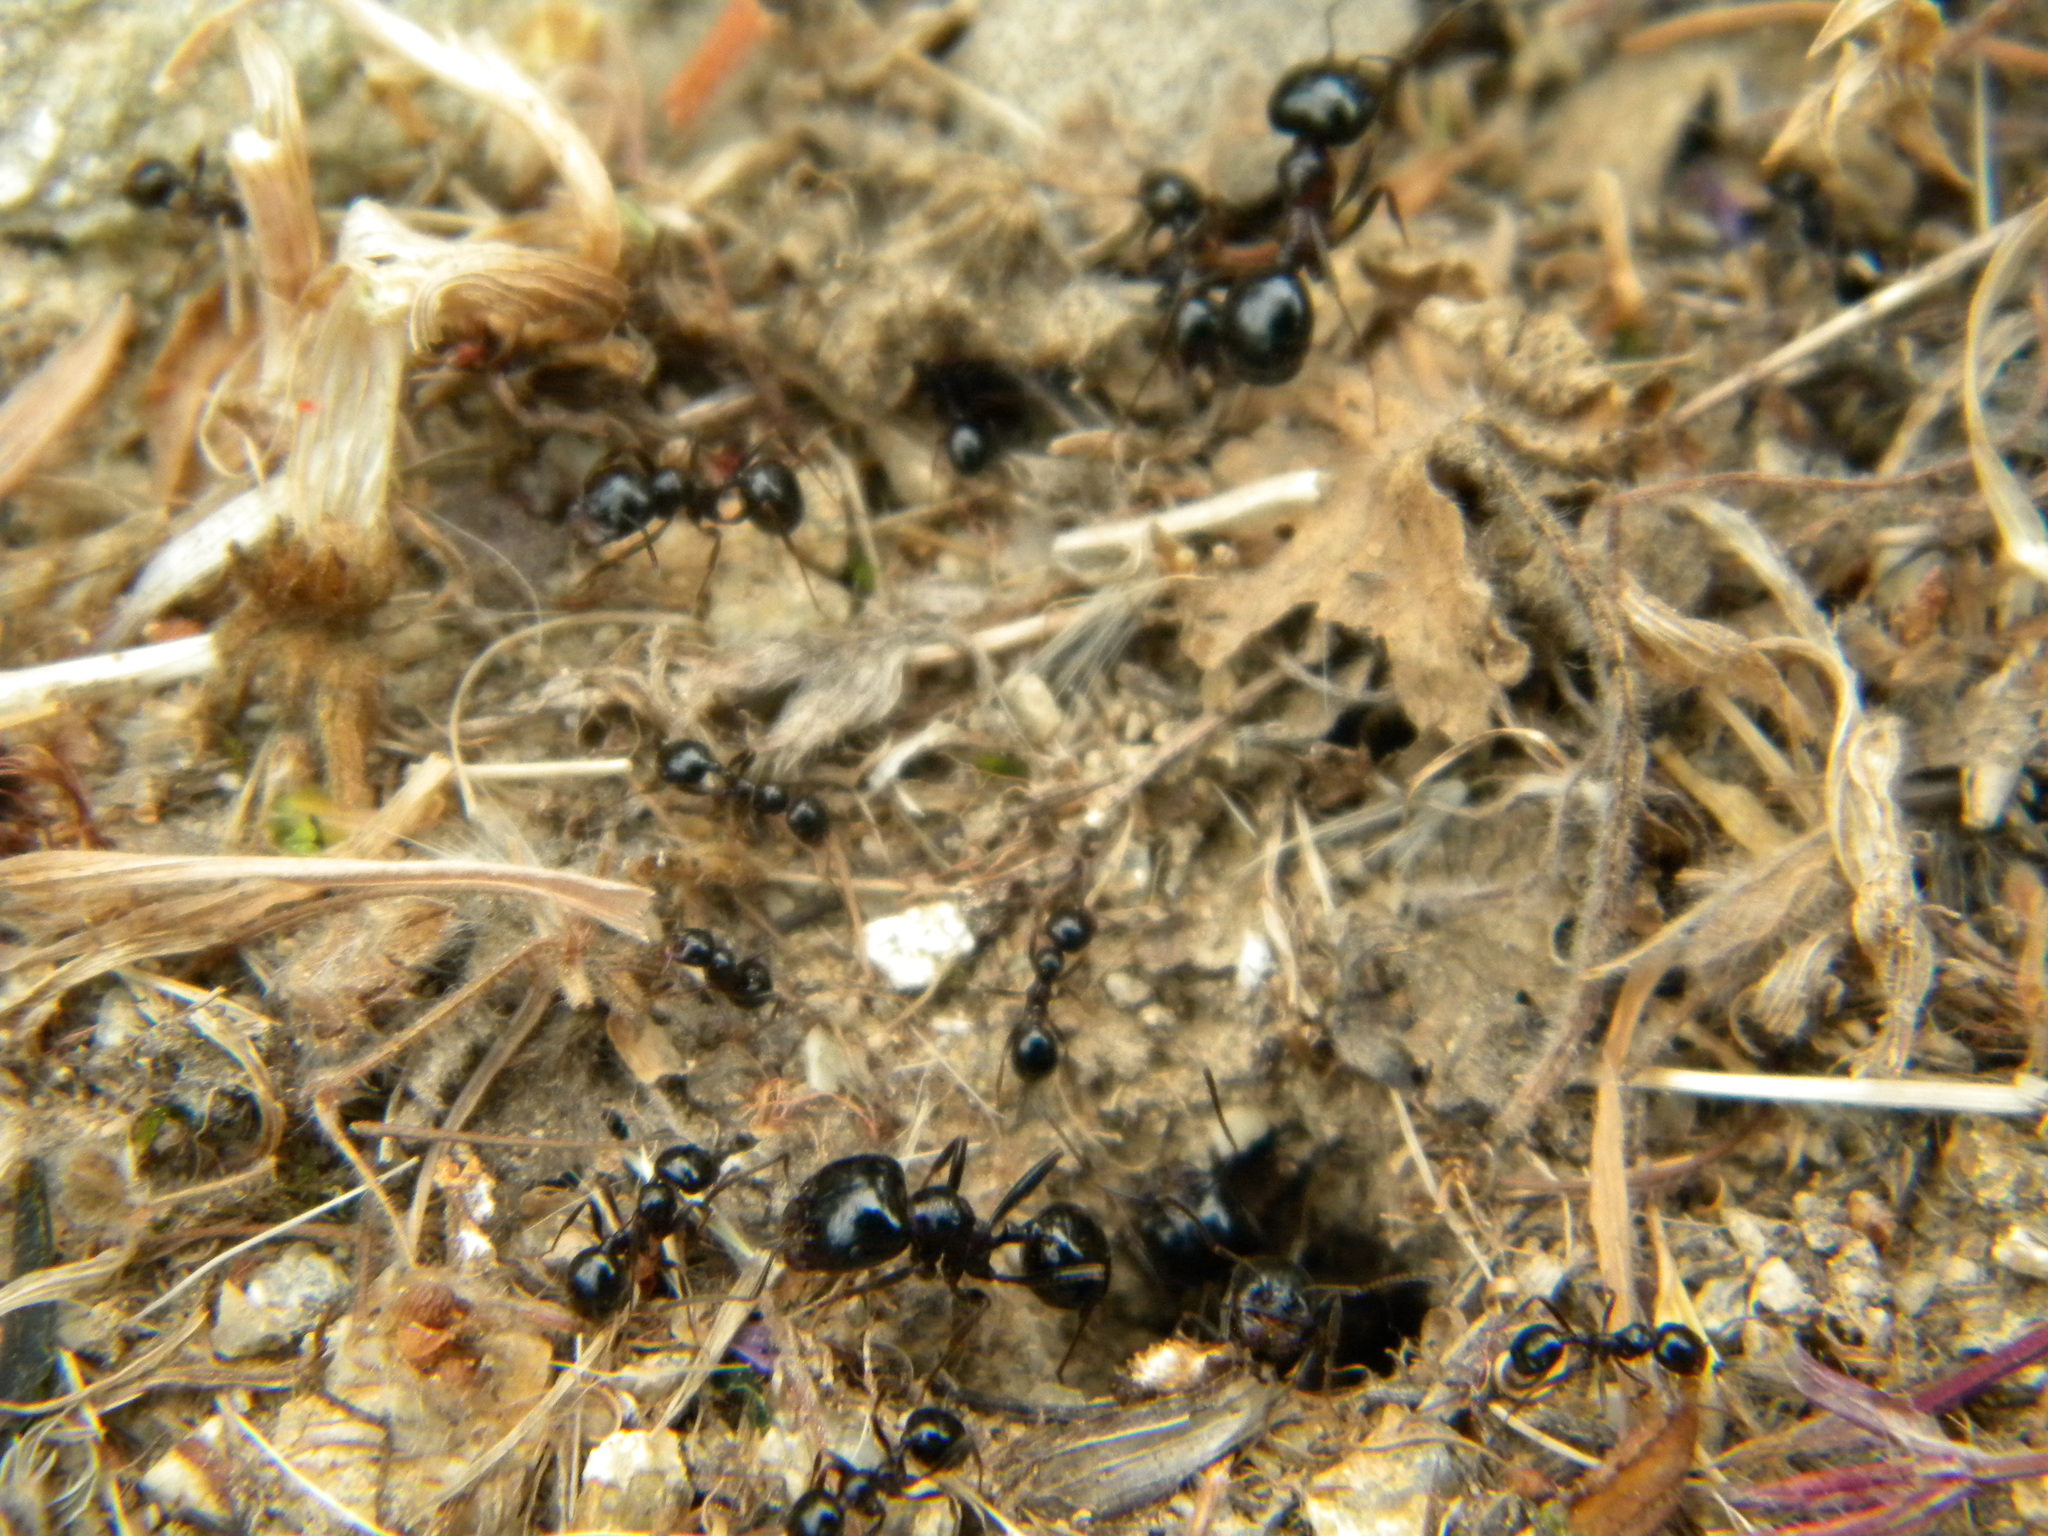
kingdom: Animalia
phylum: Arthropoda
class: Insecta
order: Hymenoptera
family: Formicidae
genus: Messor
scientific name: Messor wasmanni
